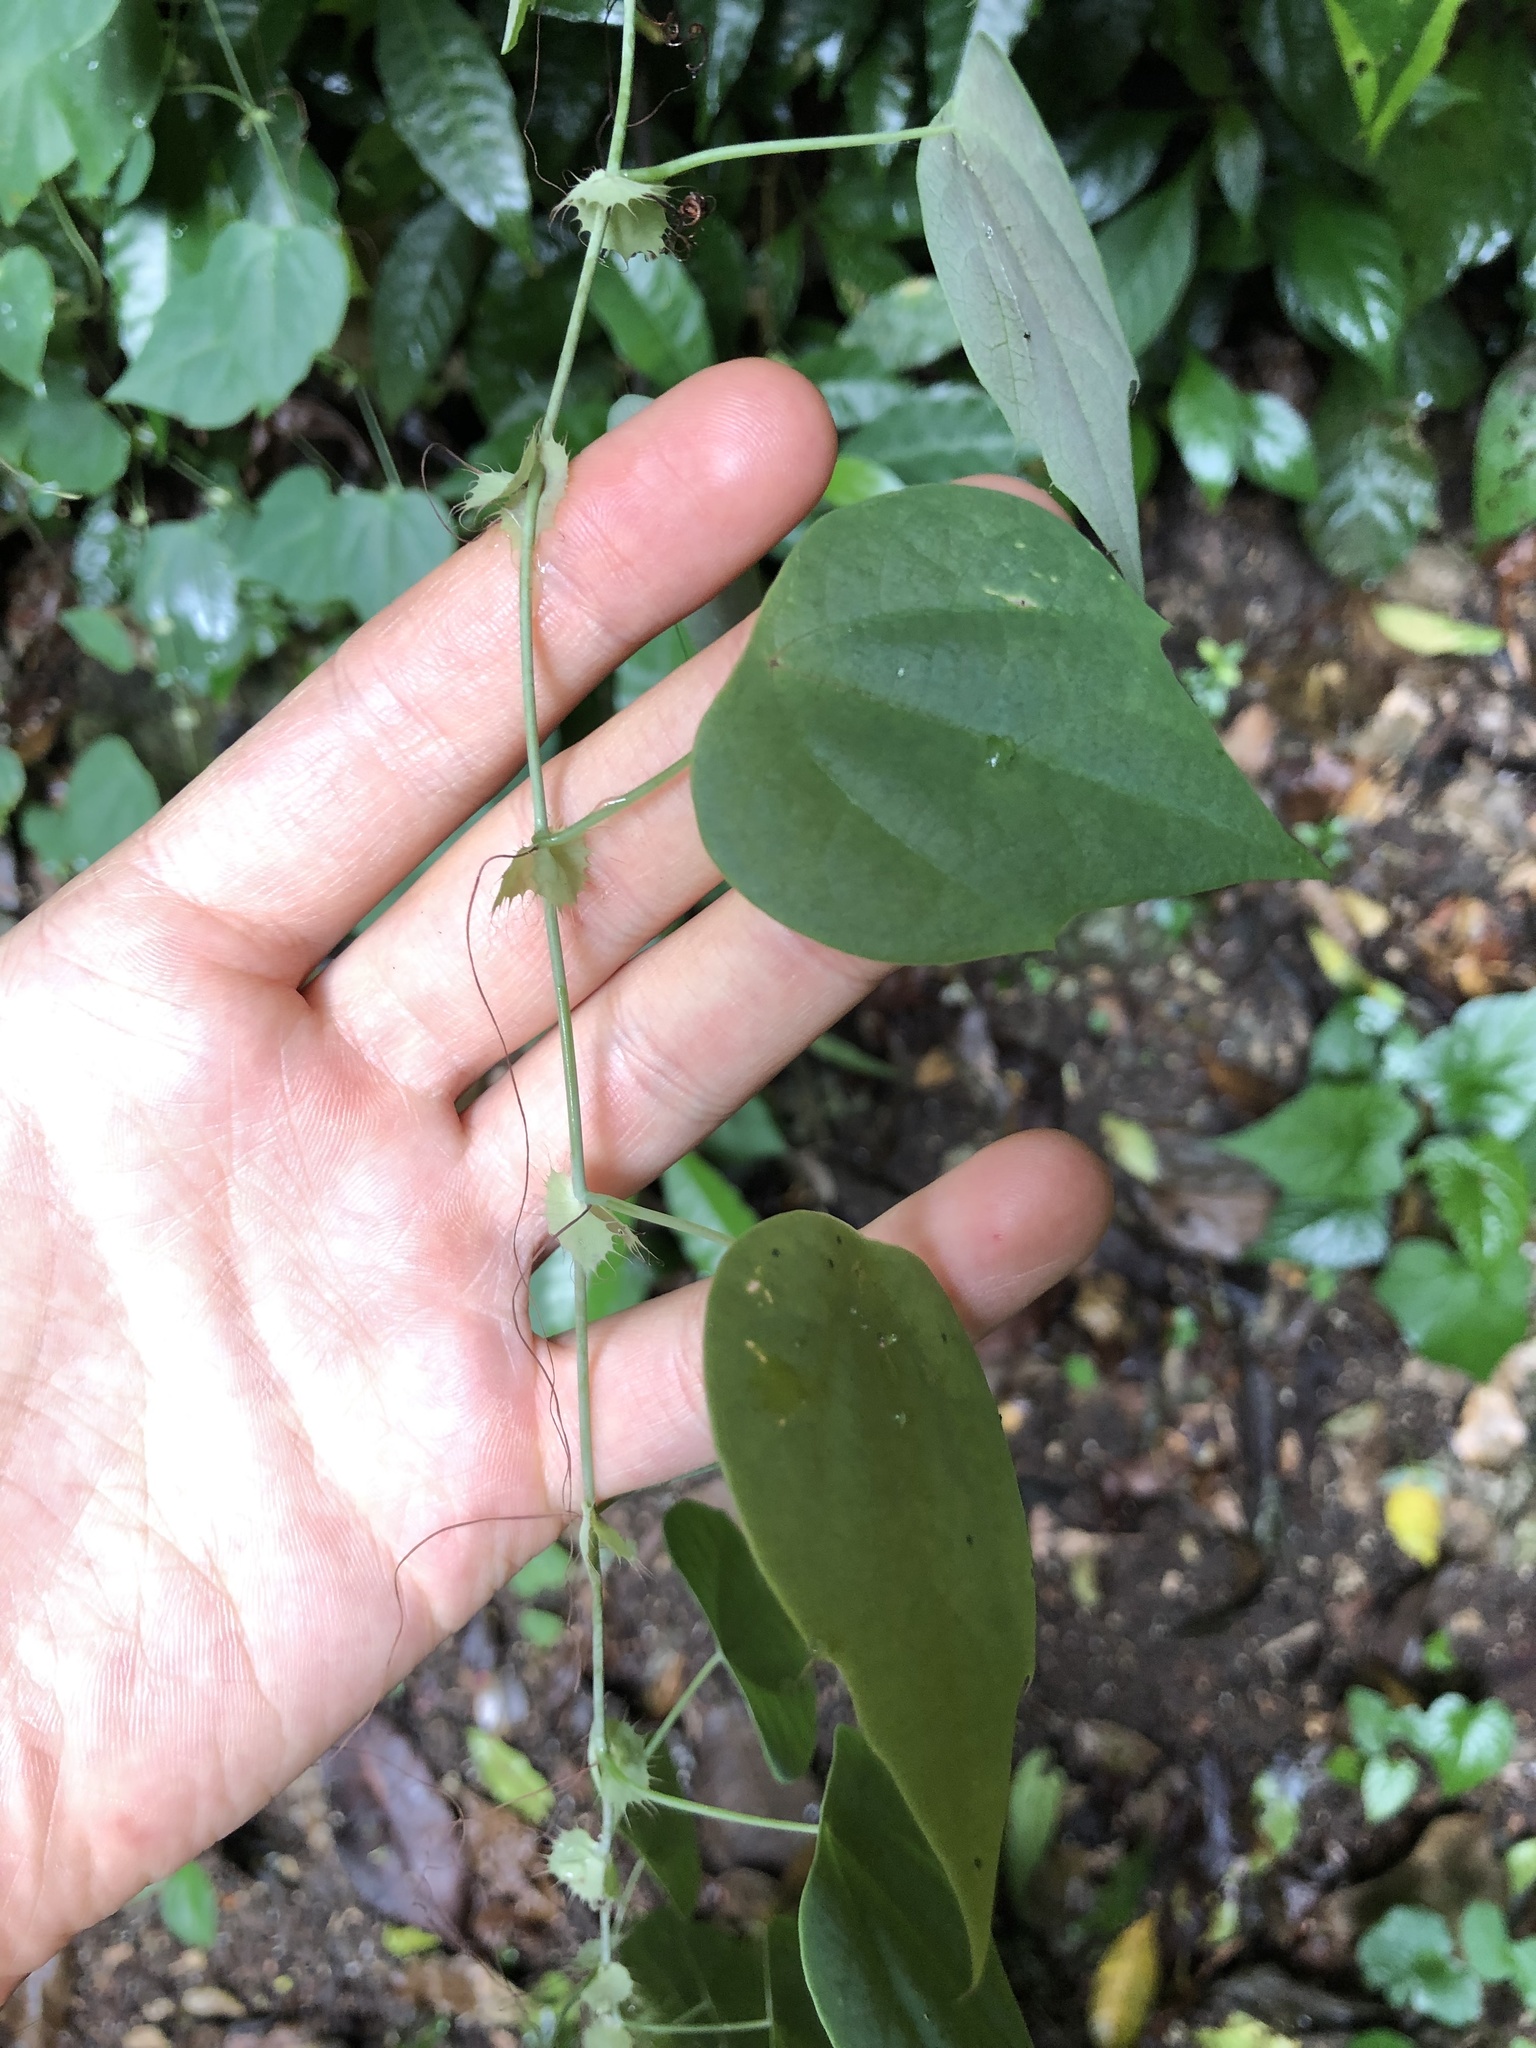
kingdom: Plantae
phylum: Tracheophyta
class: Magnoliopsida
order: Malpighiales
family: Passifloraceae
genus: Passiflora
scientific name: Passiflora guatemalensis
